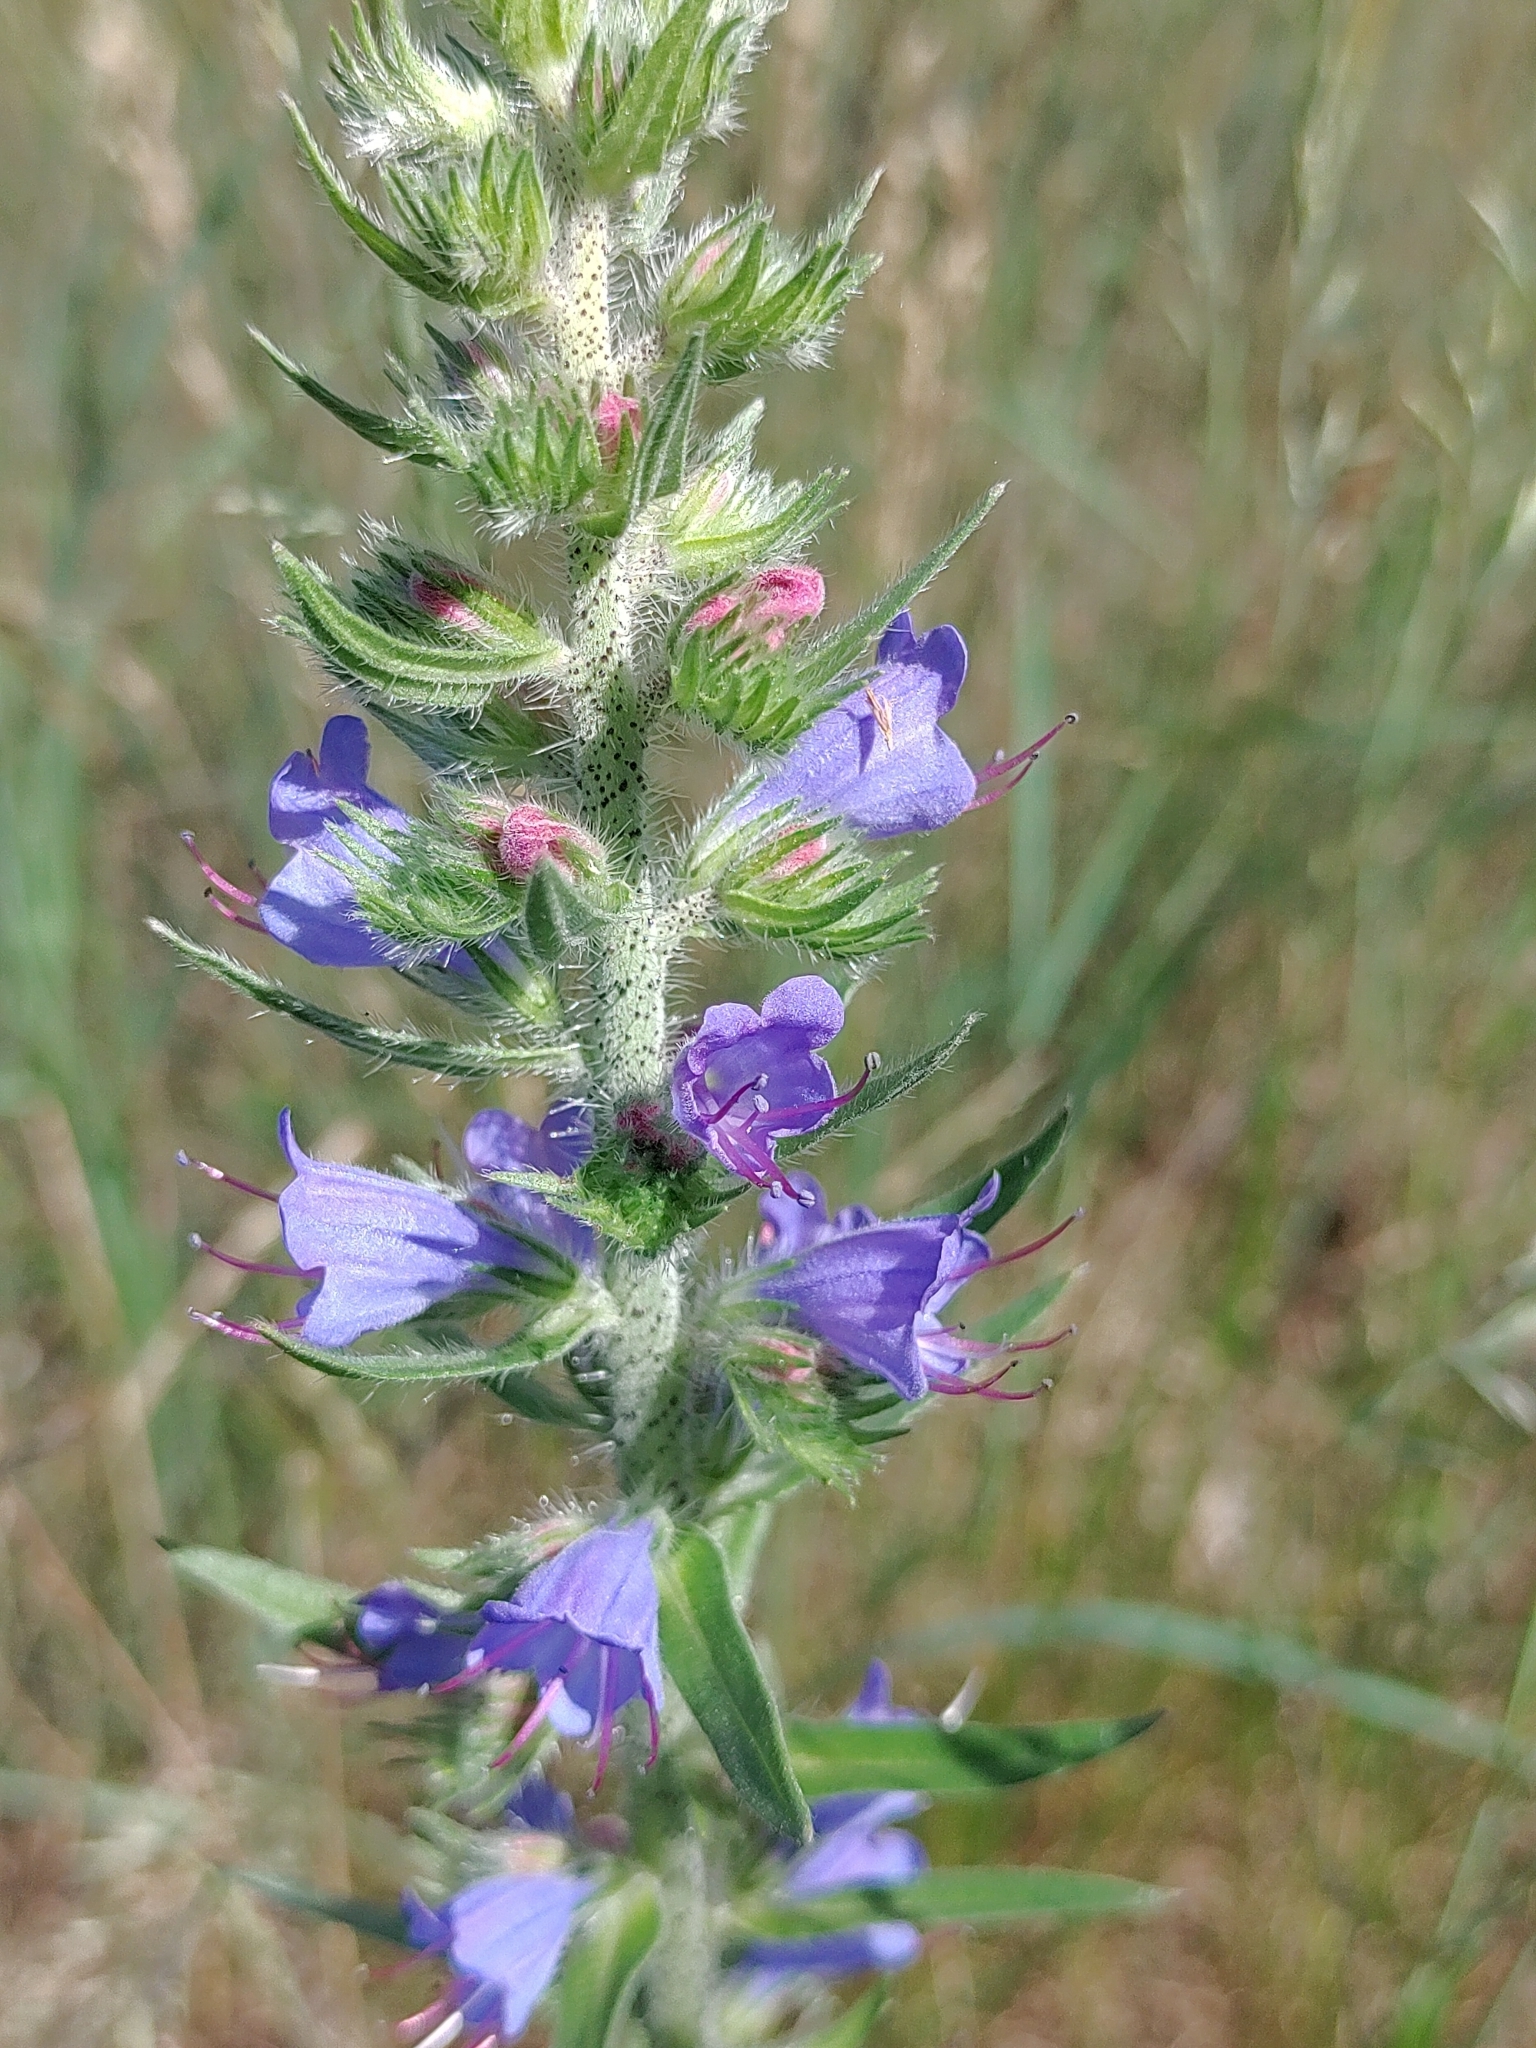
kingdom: Plantae
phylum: Tracheophyta
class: Magnoliopsida
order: Boraginales
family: Boraginaceae
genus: Echium
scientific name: Echium vulgare
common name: Common viper's bugloss
